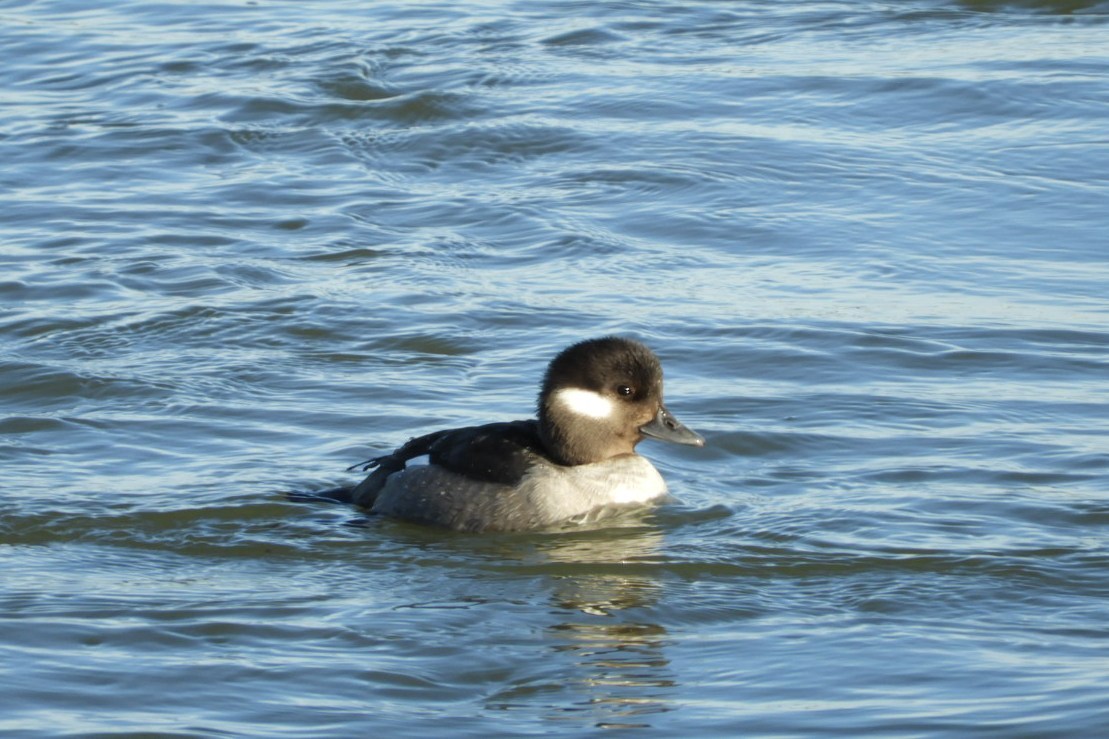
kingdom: Animalia
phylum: Chordata
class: Aves
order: Anseriformes
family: Anatidae
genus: Bucephala
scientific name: Bucephala albeola
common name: Bufflehead
